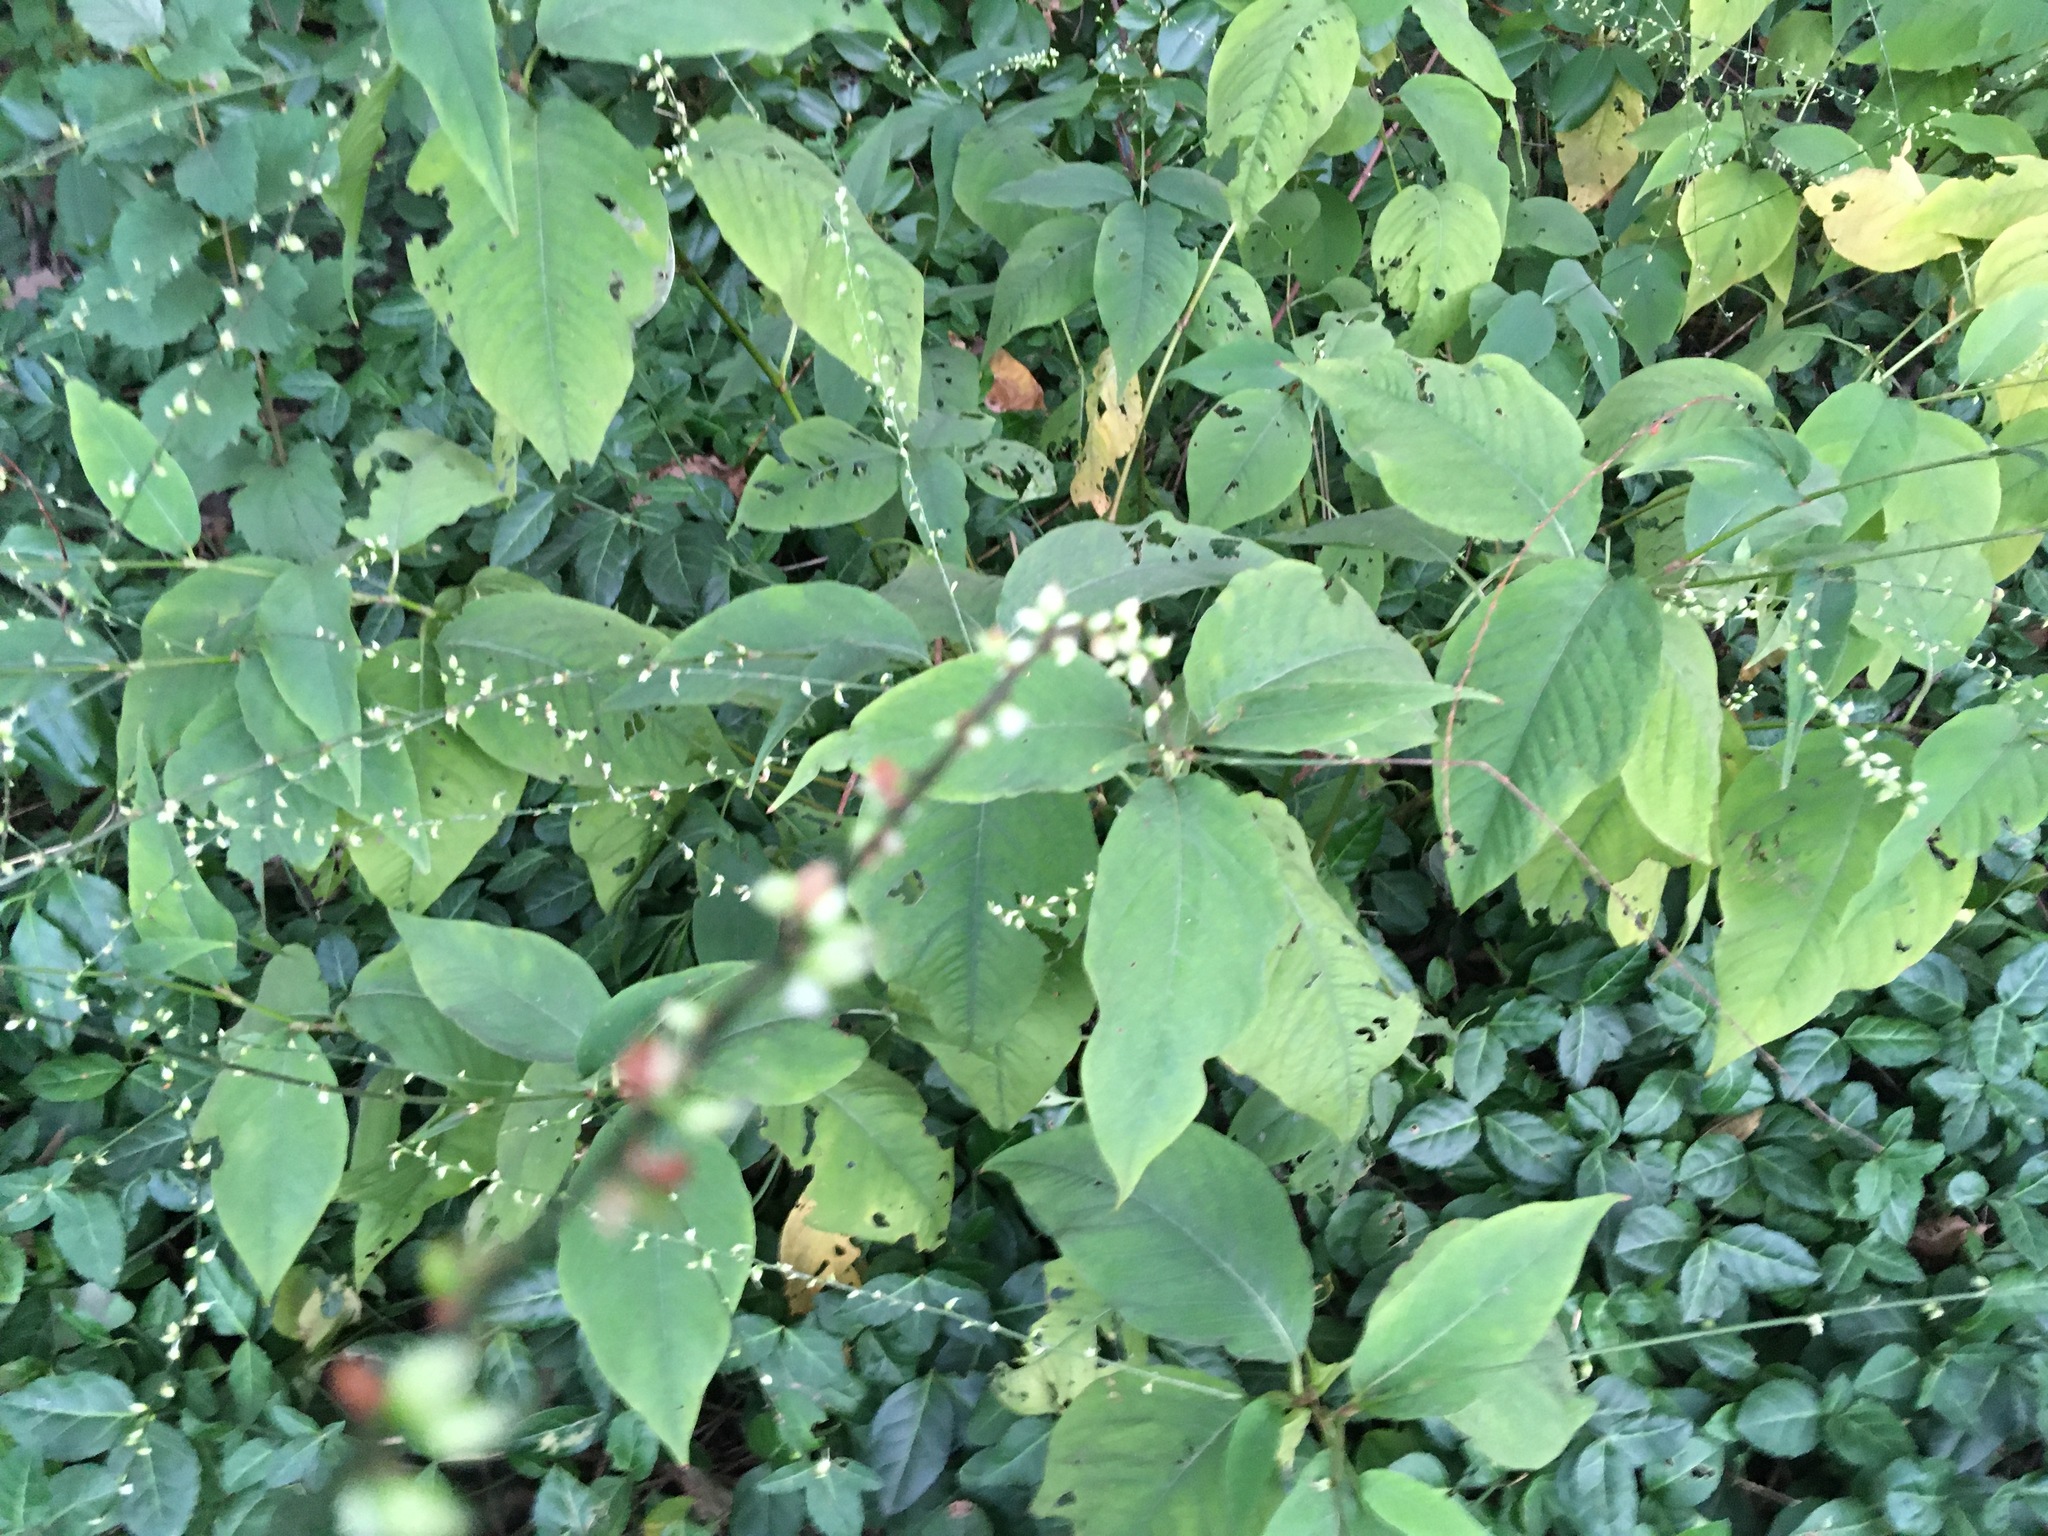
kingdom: Plantae
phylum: Tracheophyta
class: Magnoliopsida
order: Caryophyllales
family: Polygonaceae
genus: Persicaria
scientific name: Persicaria virginiana
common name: Jumpseed
